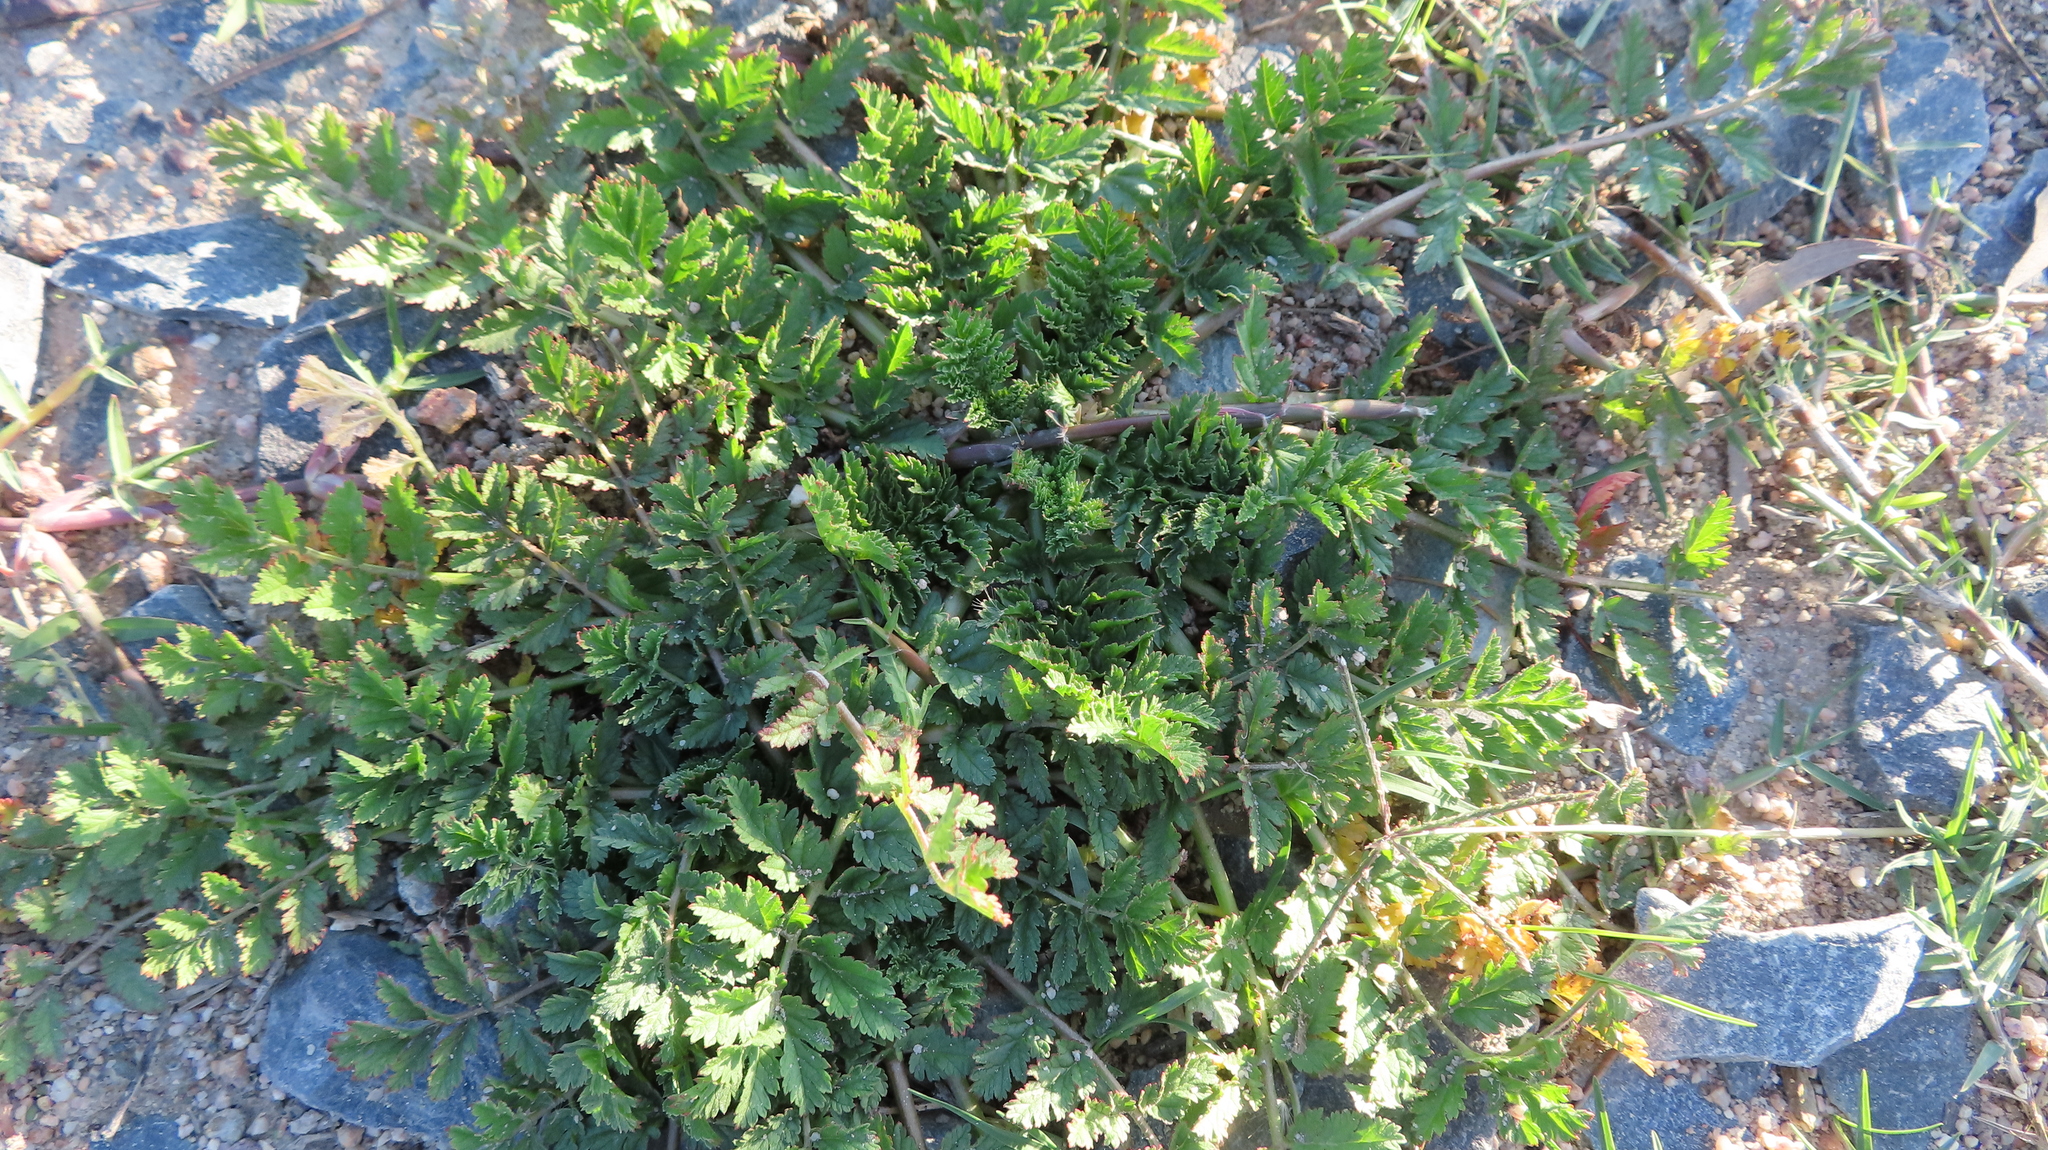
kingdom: Plantae
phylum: Tracheophyta
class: Magnoliopsida
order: Geraniales
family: Geraniaceae
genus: Erodium
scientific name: Erodium moschatum
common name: Musk stork's-bill
